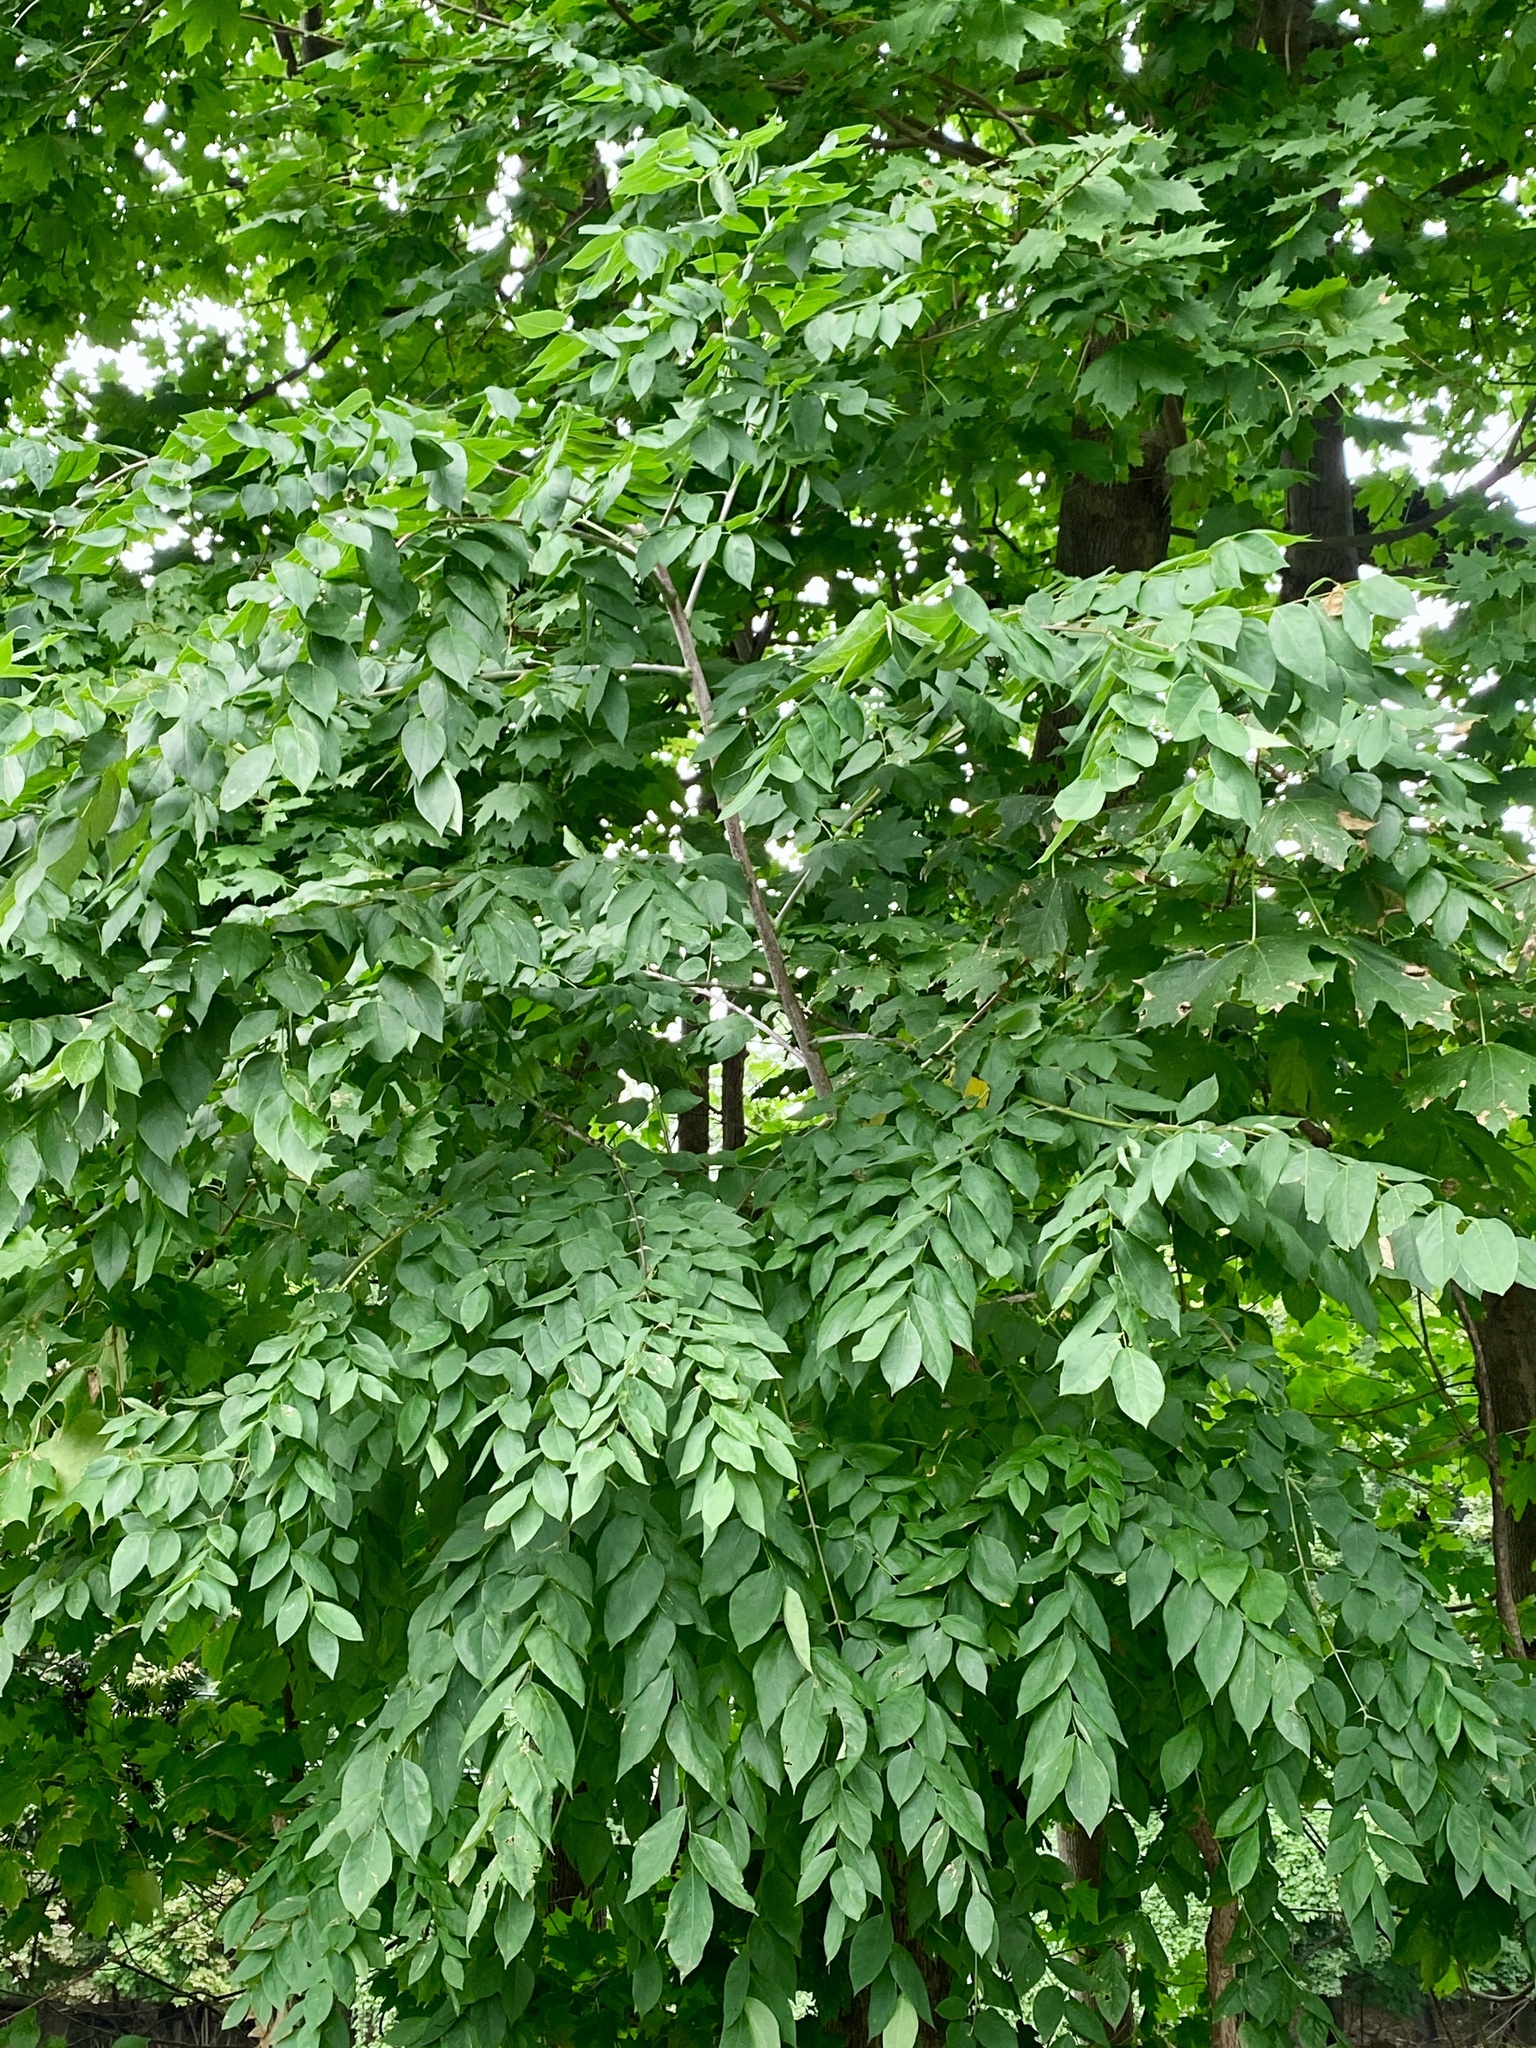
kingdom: Plantae
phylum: Tracheophyta
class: Magnoliopsida
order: Fabales
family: Fabaceae
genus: Gymnocladus
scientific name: Gymnocladus dioicus
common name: Kentucky coffee-tree
